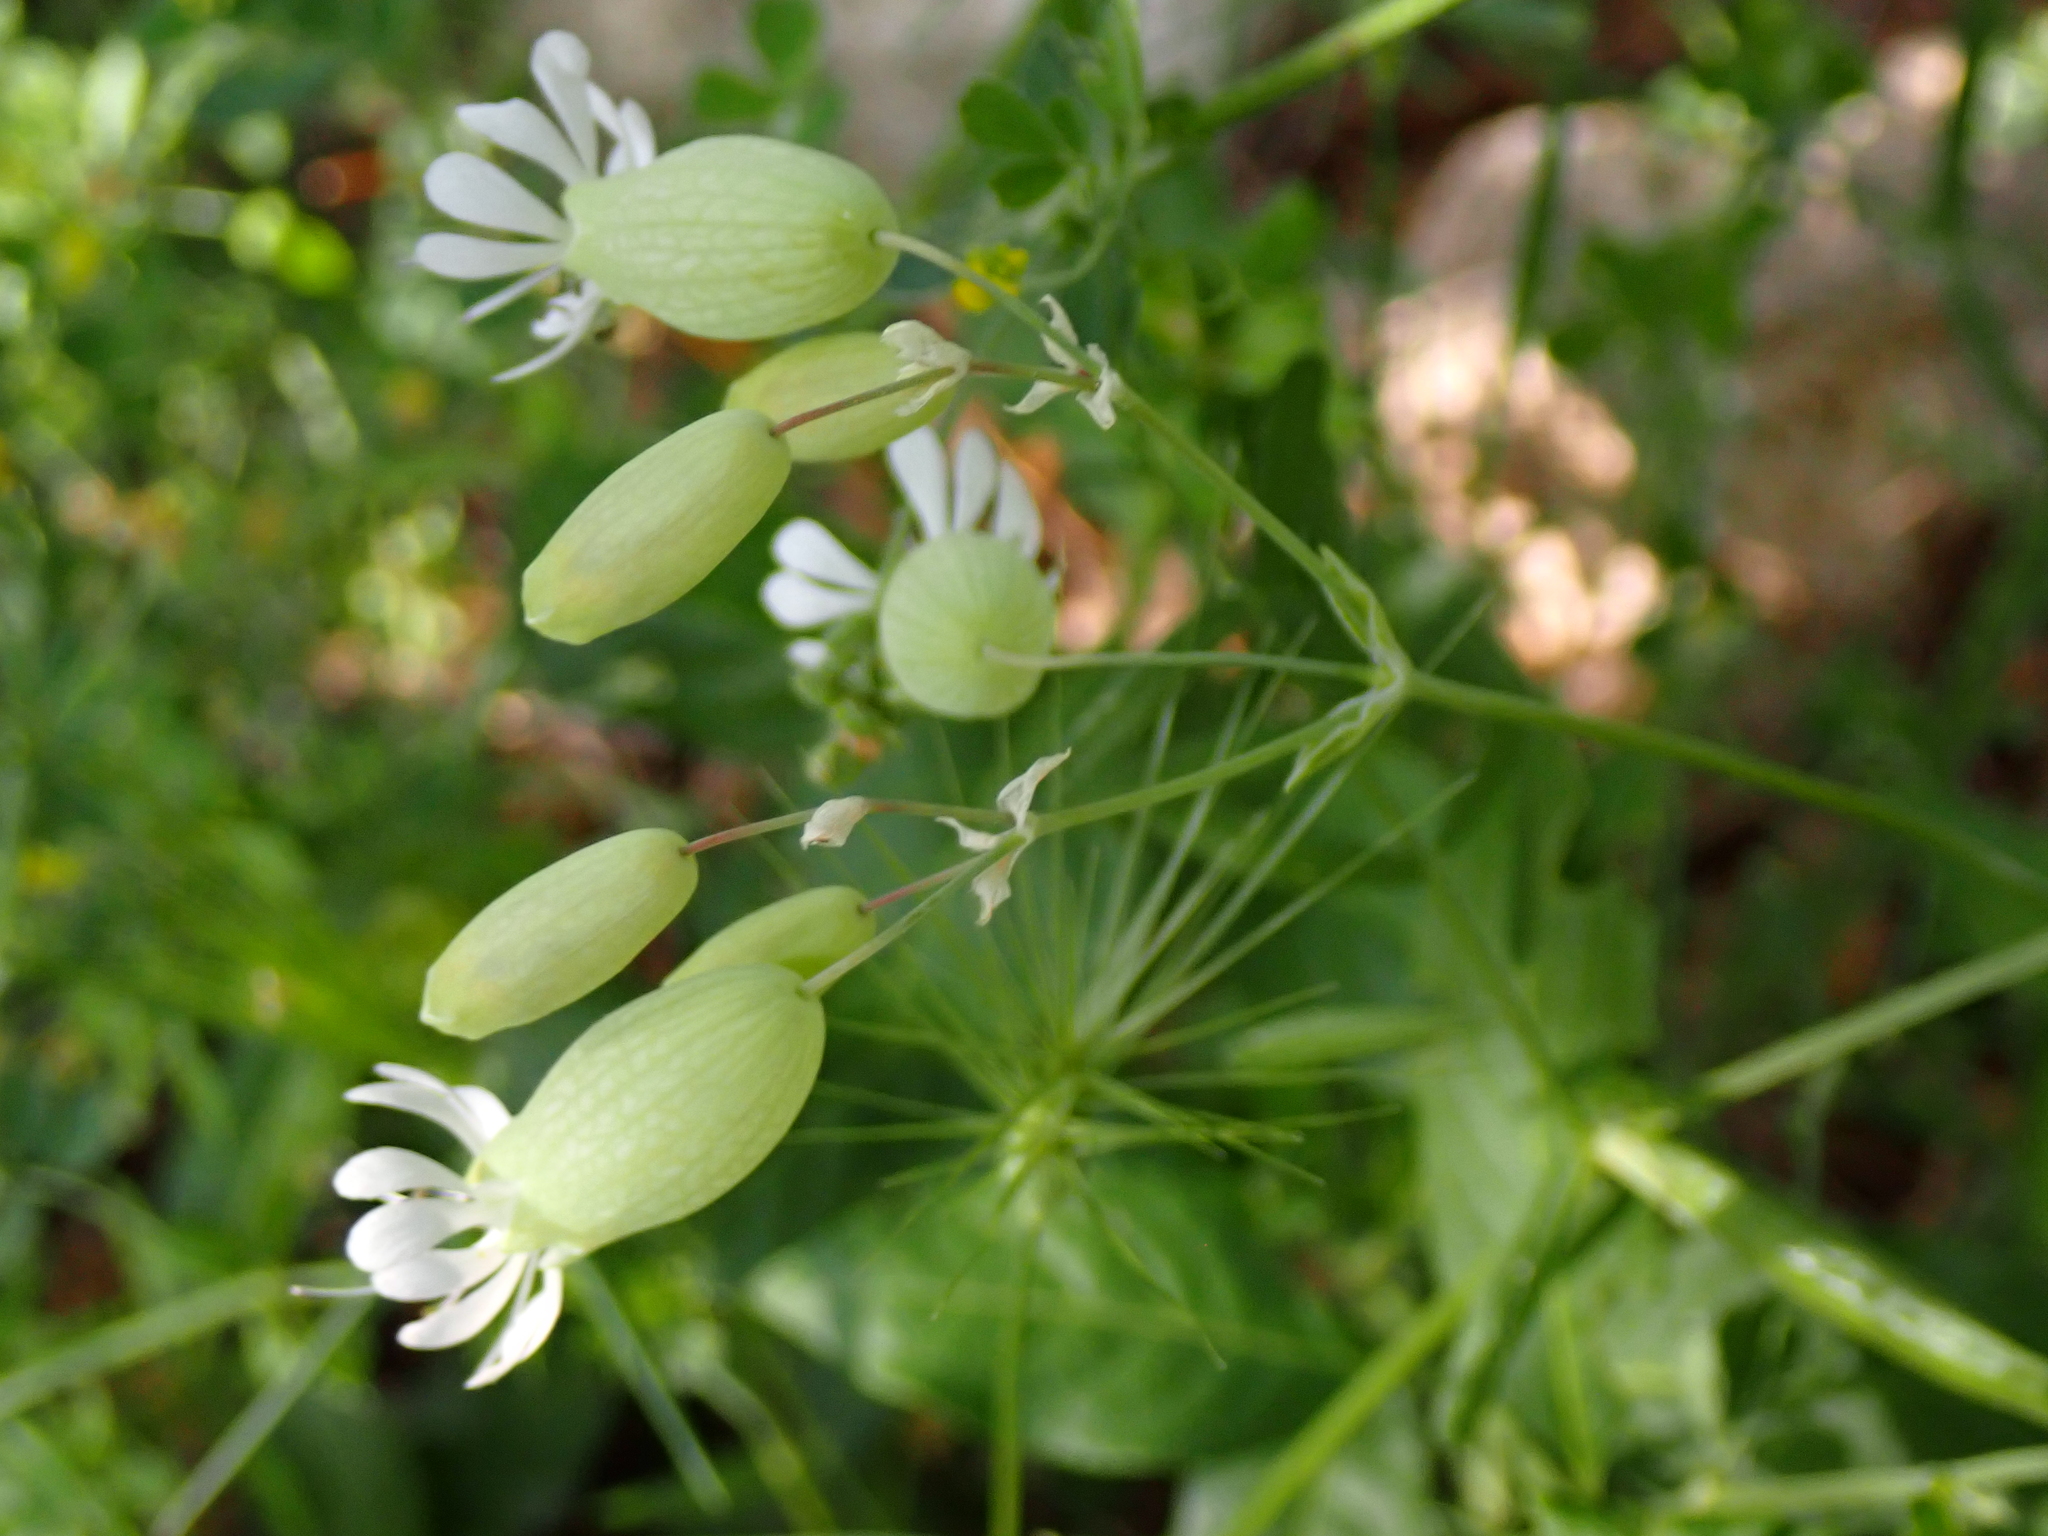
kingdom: Plantae
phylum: Tracheophyta
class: Magnoliopsida
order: Caryophyllales
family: Caryophyllaceae
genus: Silene
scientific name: Silene vulgaris
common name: Bladder campion
